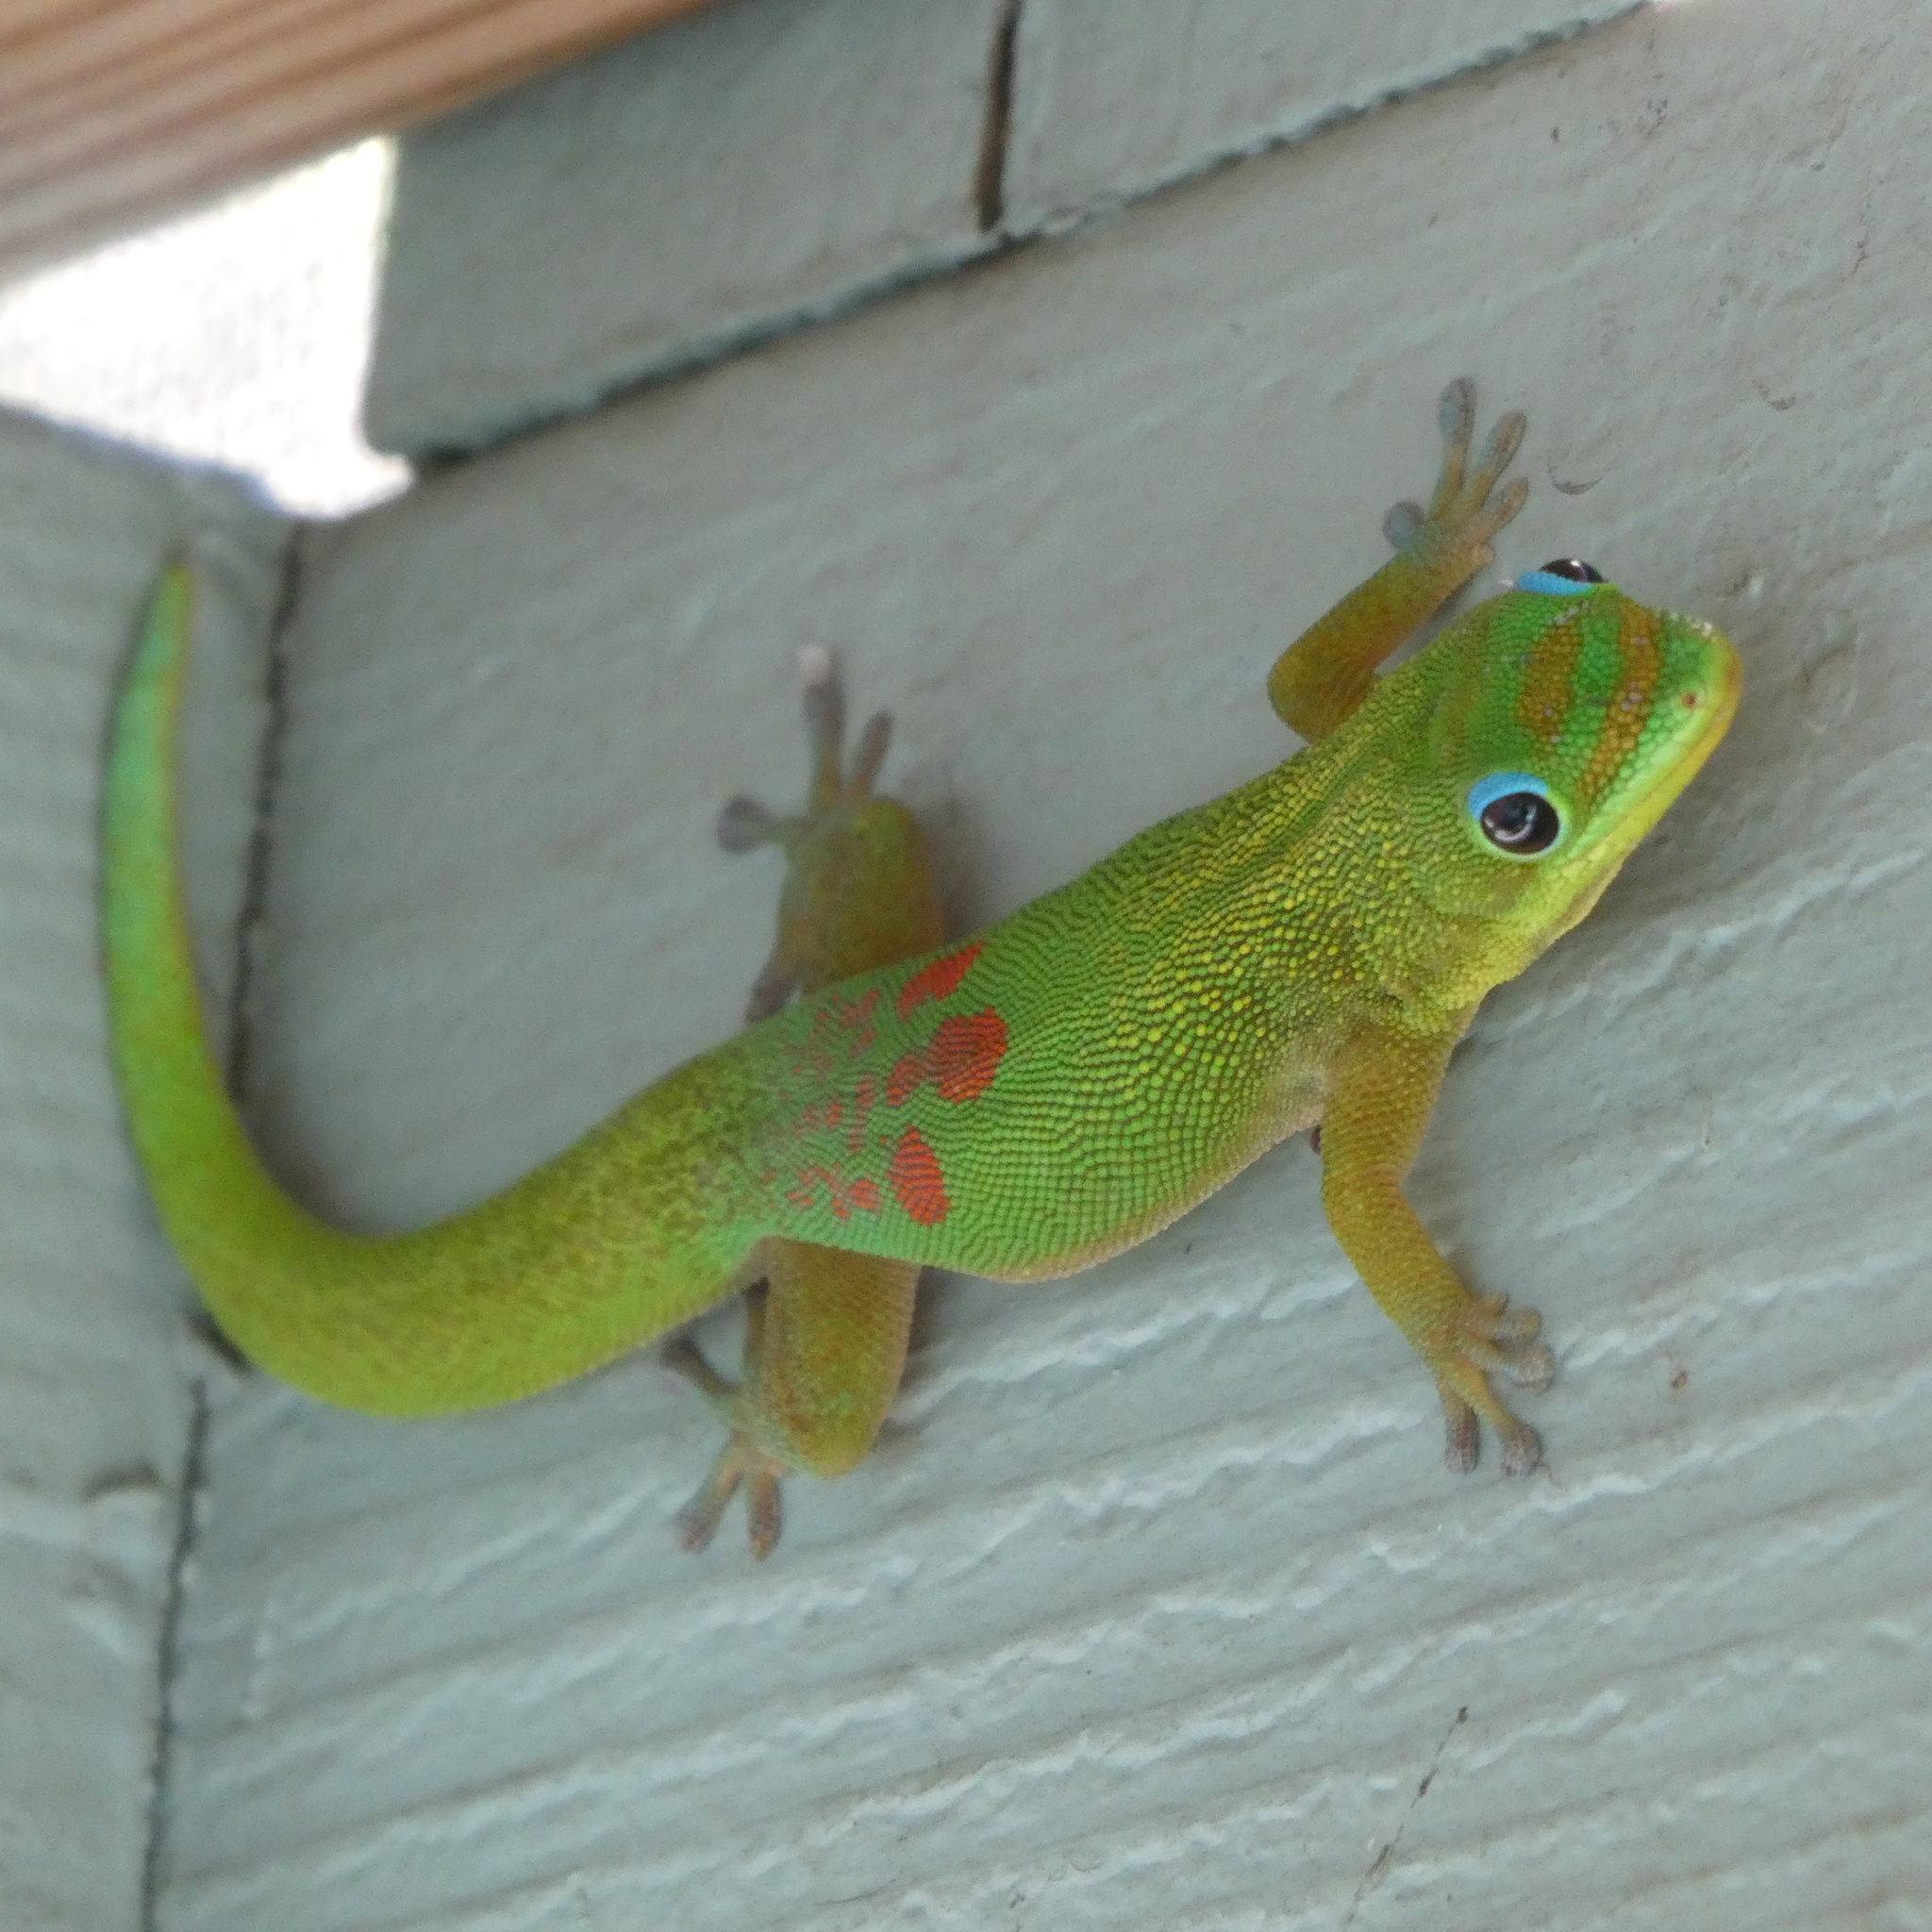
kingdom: Animalia
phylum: Chordata
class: Squamata
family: Gekkonidae
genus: Phelsuma
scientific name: Phelsuma laticauda
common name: Gold dust day gecko
